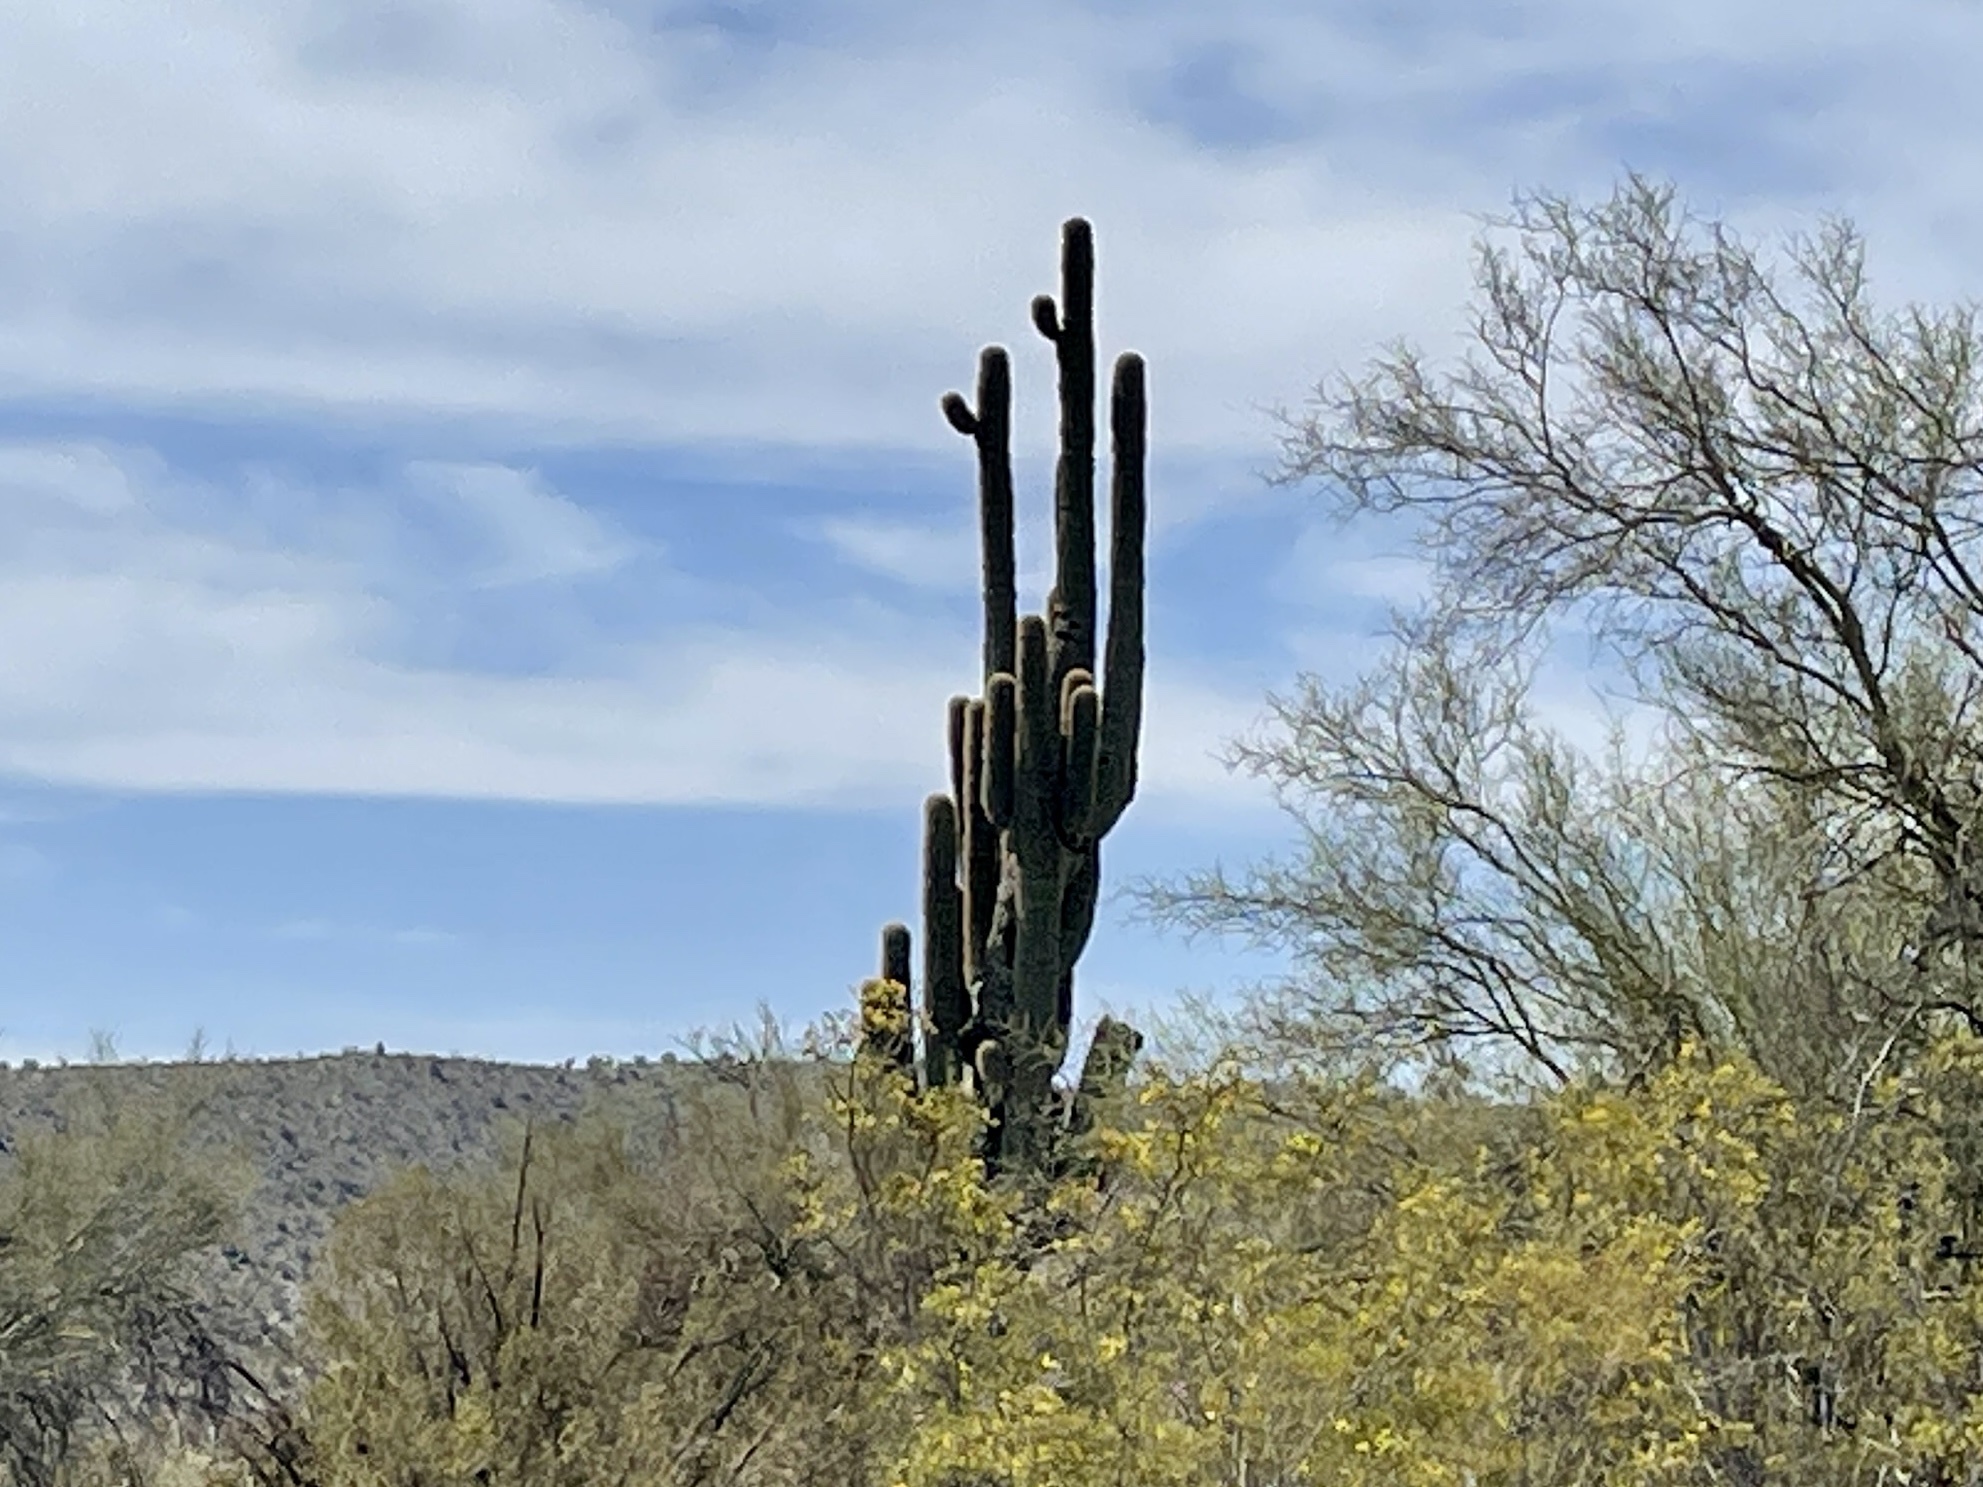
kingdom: Plantae
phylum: Tracheophyta
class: Magnoliopsida
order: Caryophyllales
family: Cactaceae
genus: Carnegiea
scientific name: Carnegiea gigantea
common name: Saguaro
